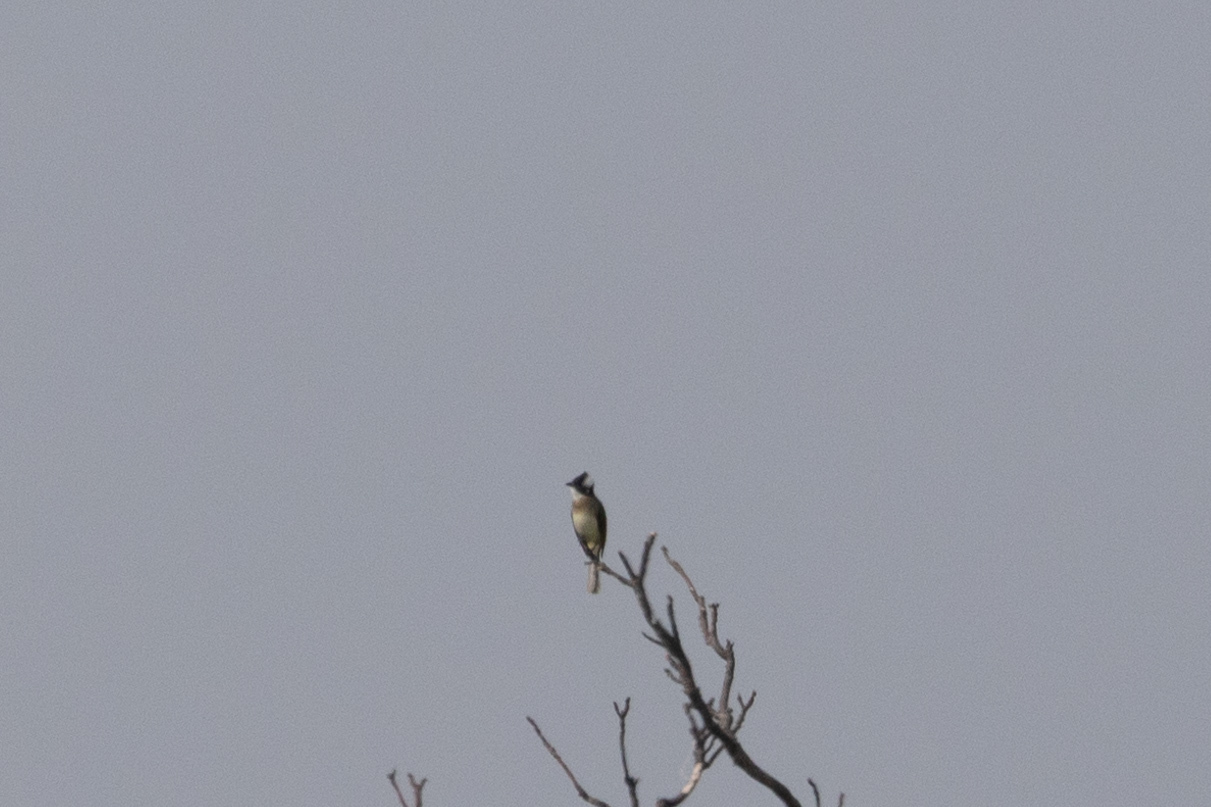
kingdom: Animalia
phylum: Chordata
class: Aves
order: Passeriformes
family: Pycnonotidae
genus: Pycnonotus
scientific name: Pycnonotus sinensis
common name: Light-vented bulbul
